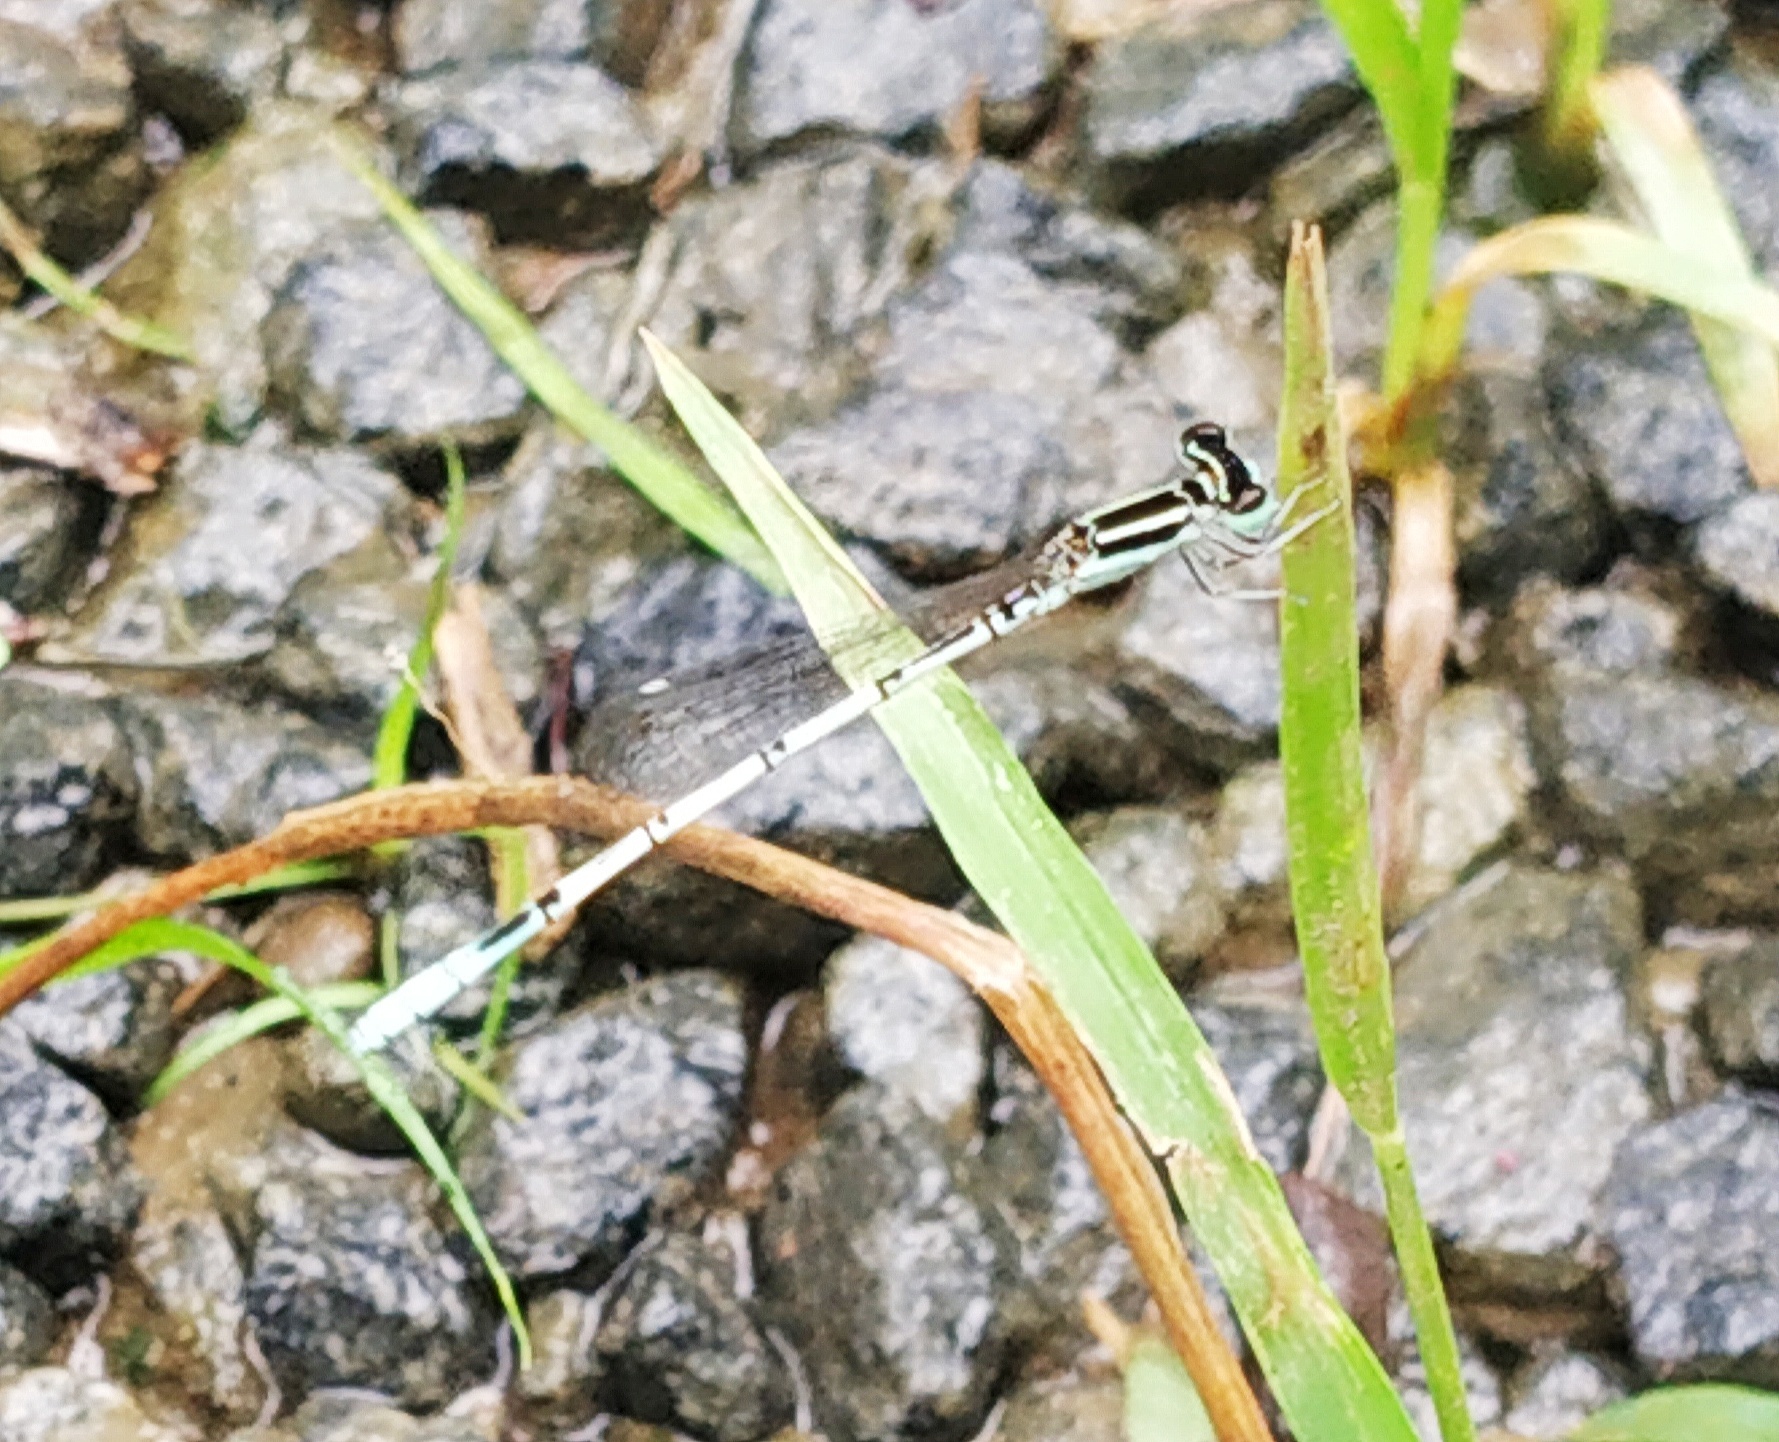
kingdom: Animalia
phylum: Arthropoda
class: Insecta
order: Odonata
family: Coenagrionidae
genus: Agriocnemis
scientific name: Agriocnemis pieris
